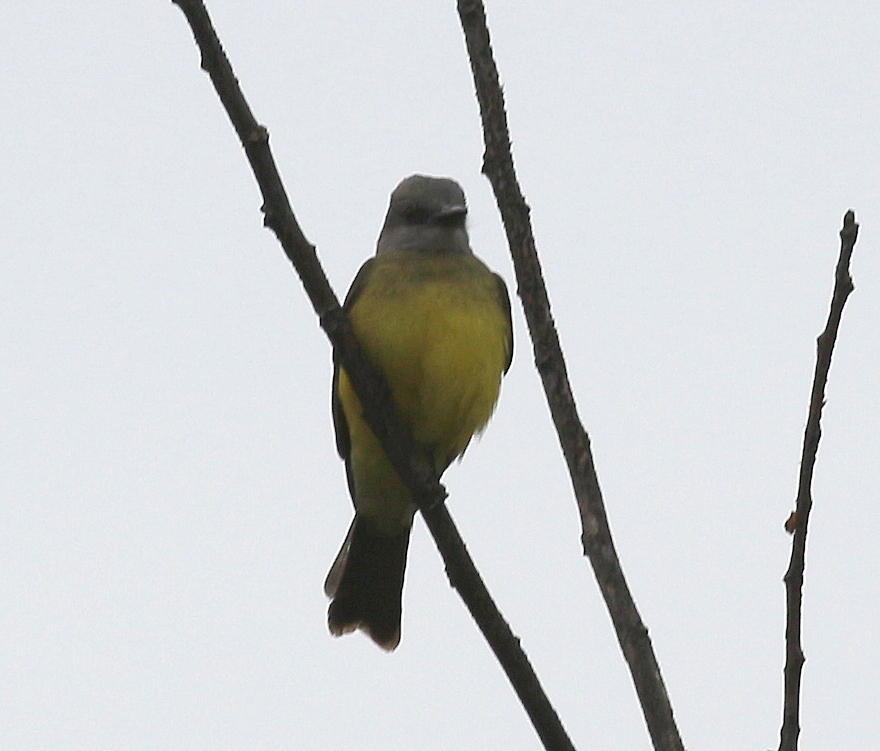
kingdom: Animalia
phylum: Chordata
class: Aves
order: Passeriformes
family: Tyrannidae
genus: Tyrannus
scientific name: Tyrannus melancholicus
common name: Tropical kingbird
